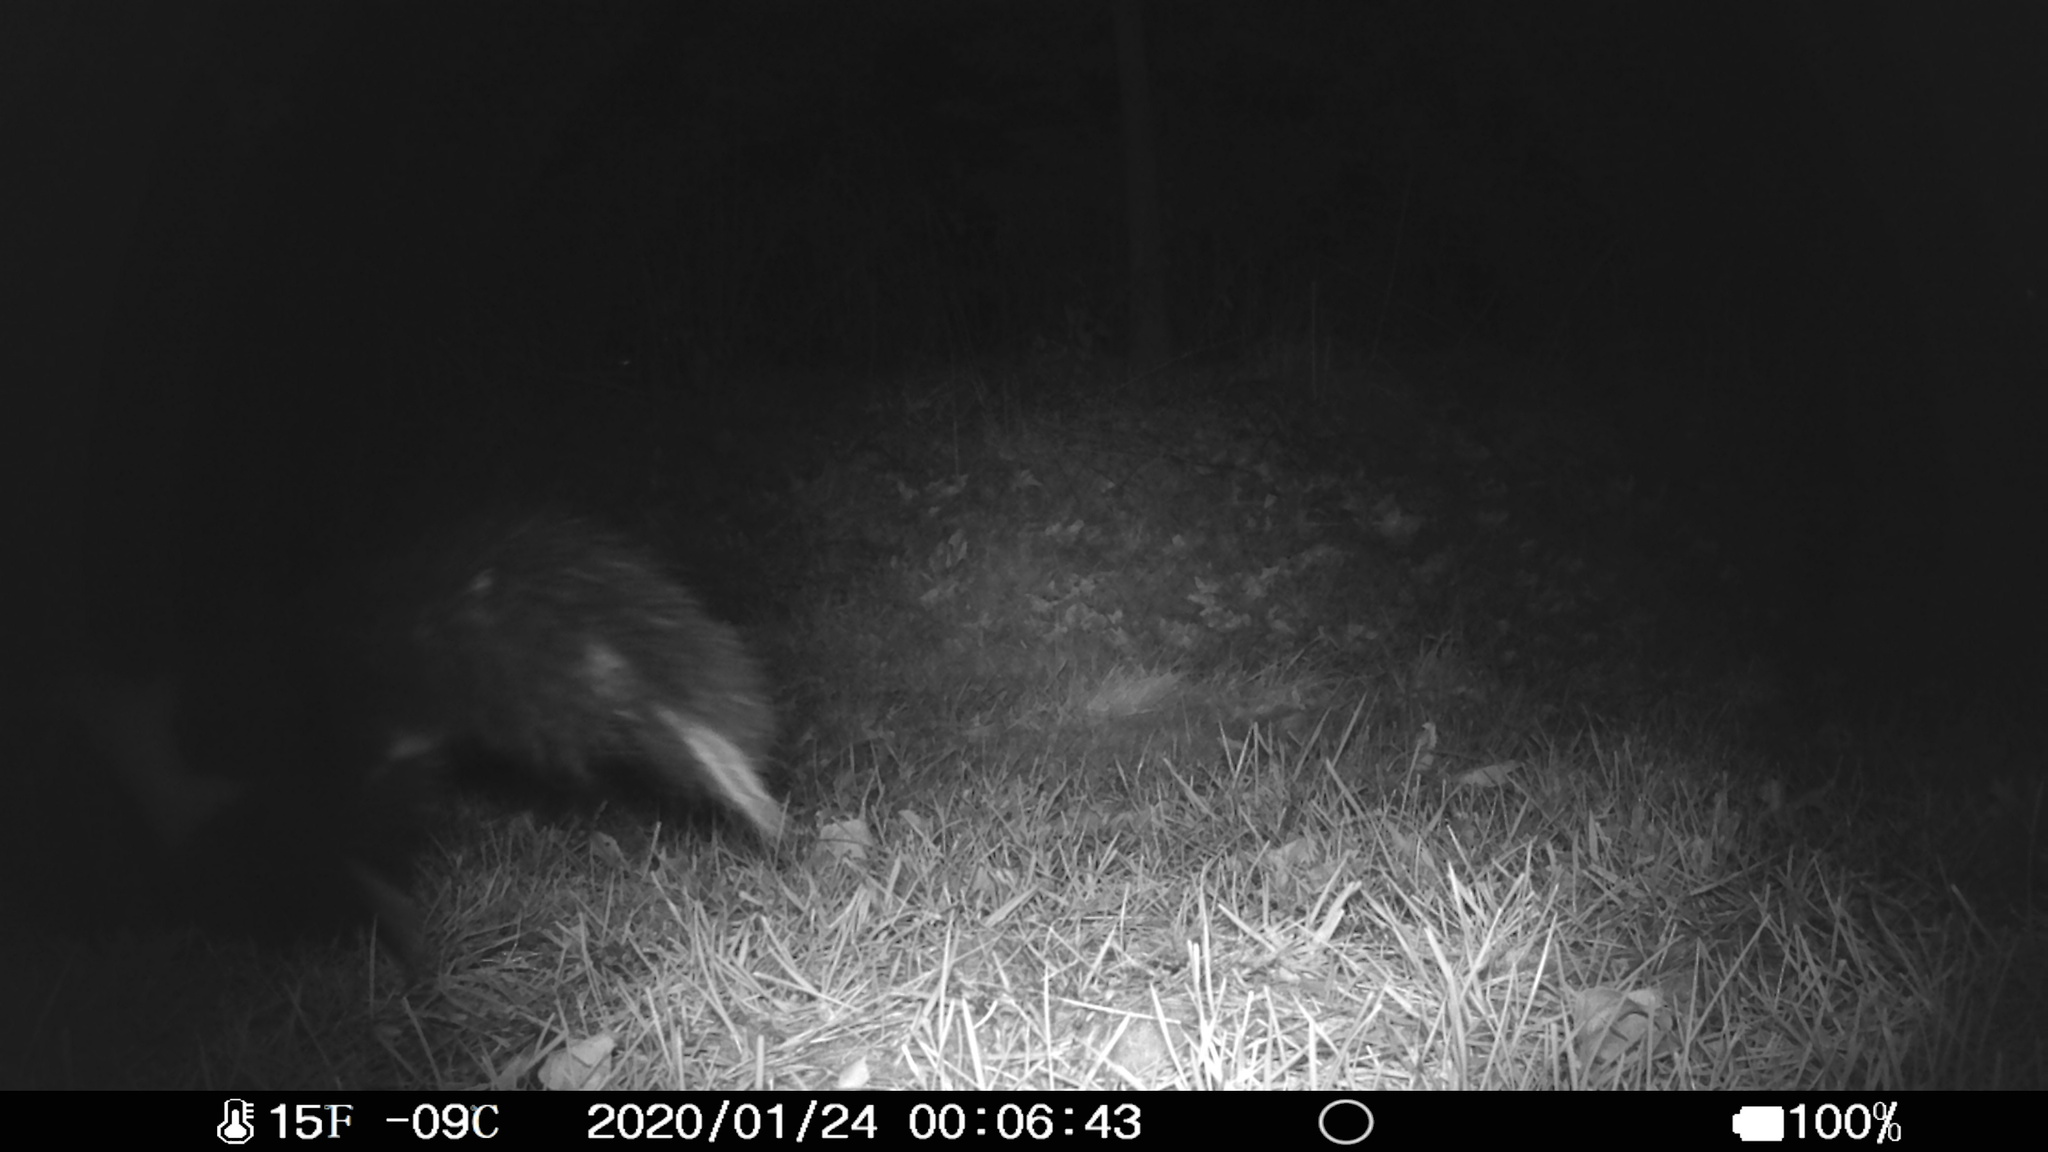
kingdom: Animalia
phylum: Chordata
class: Mammalia
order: Carnivora
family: Mephitidae
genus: Mephitis
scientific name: Mephitis mephitis
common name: Striped skunk
